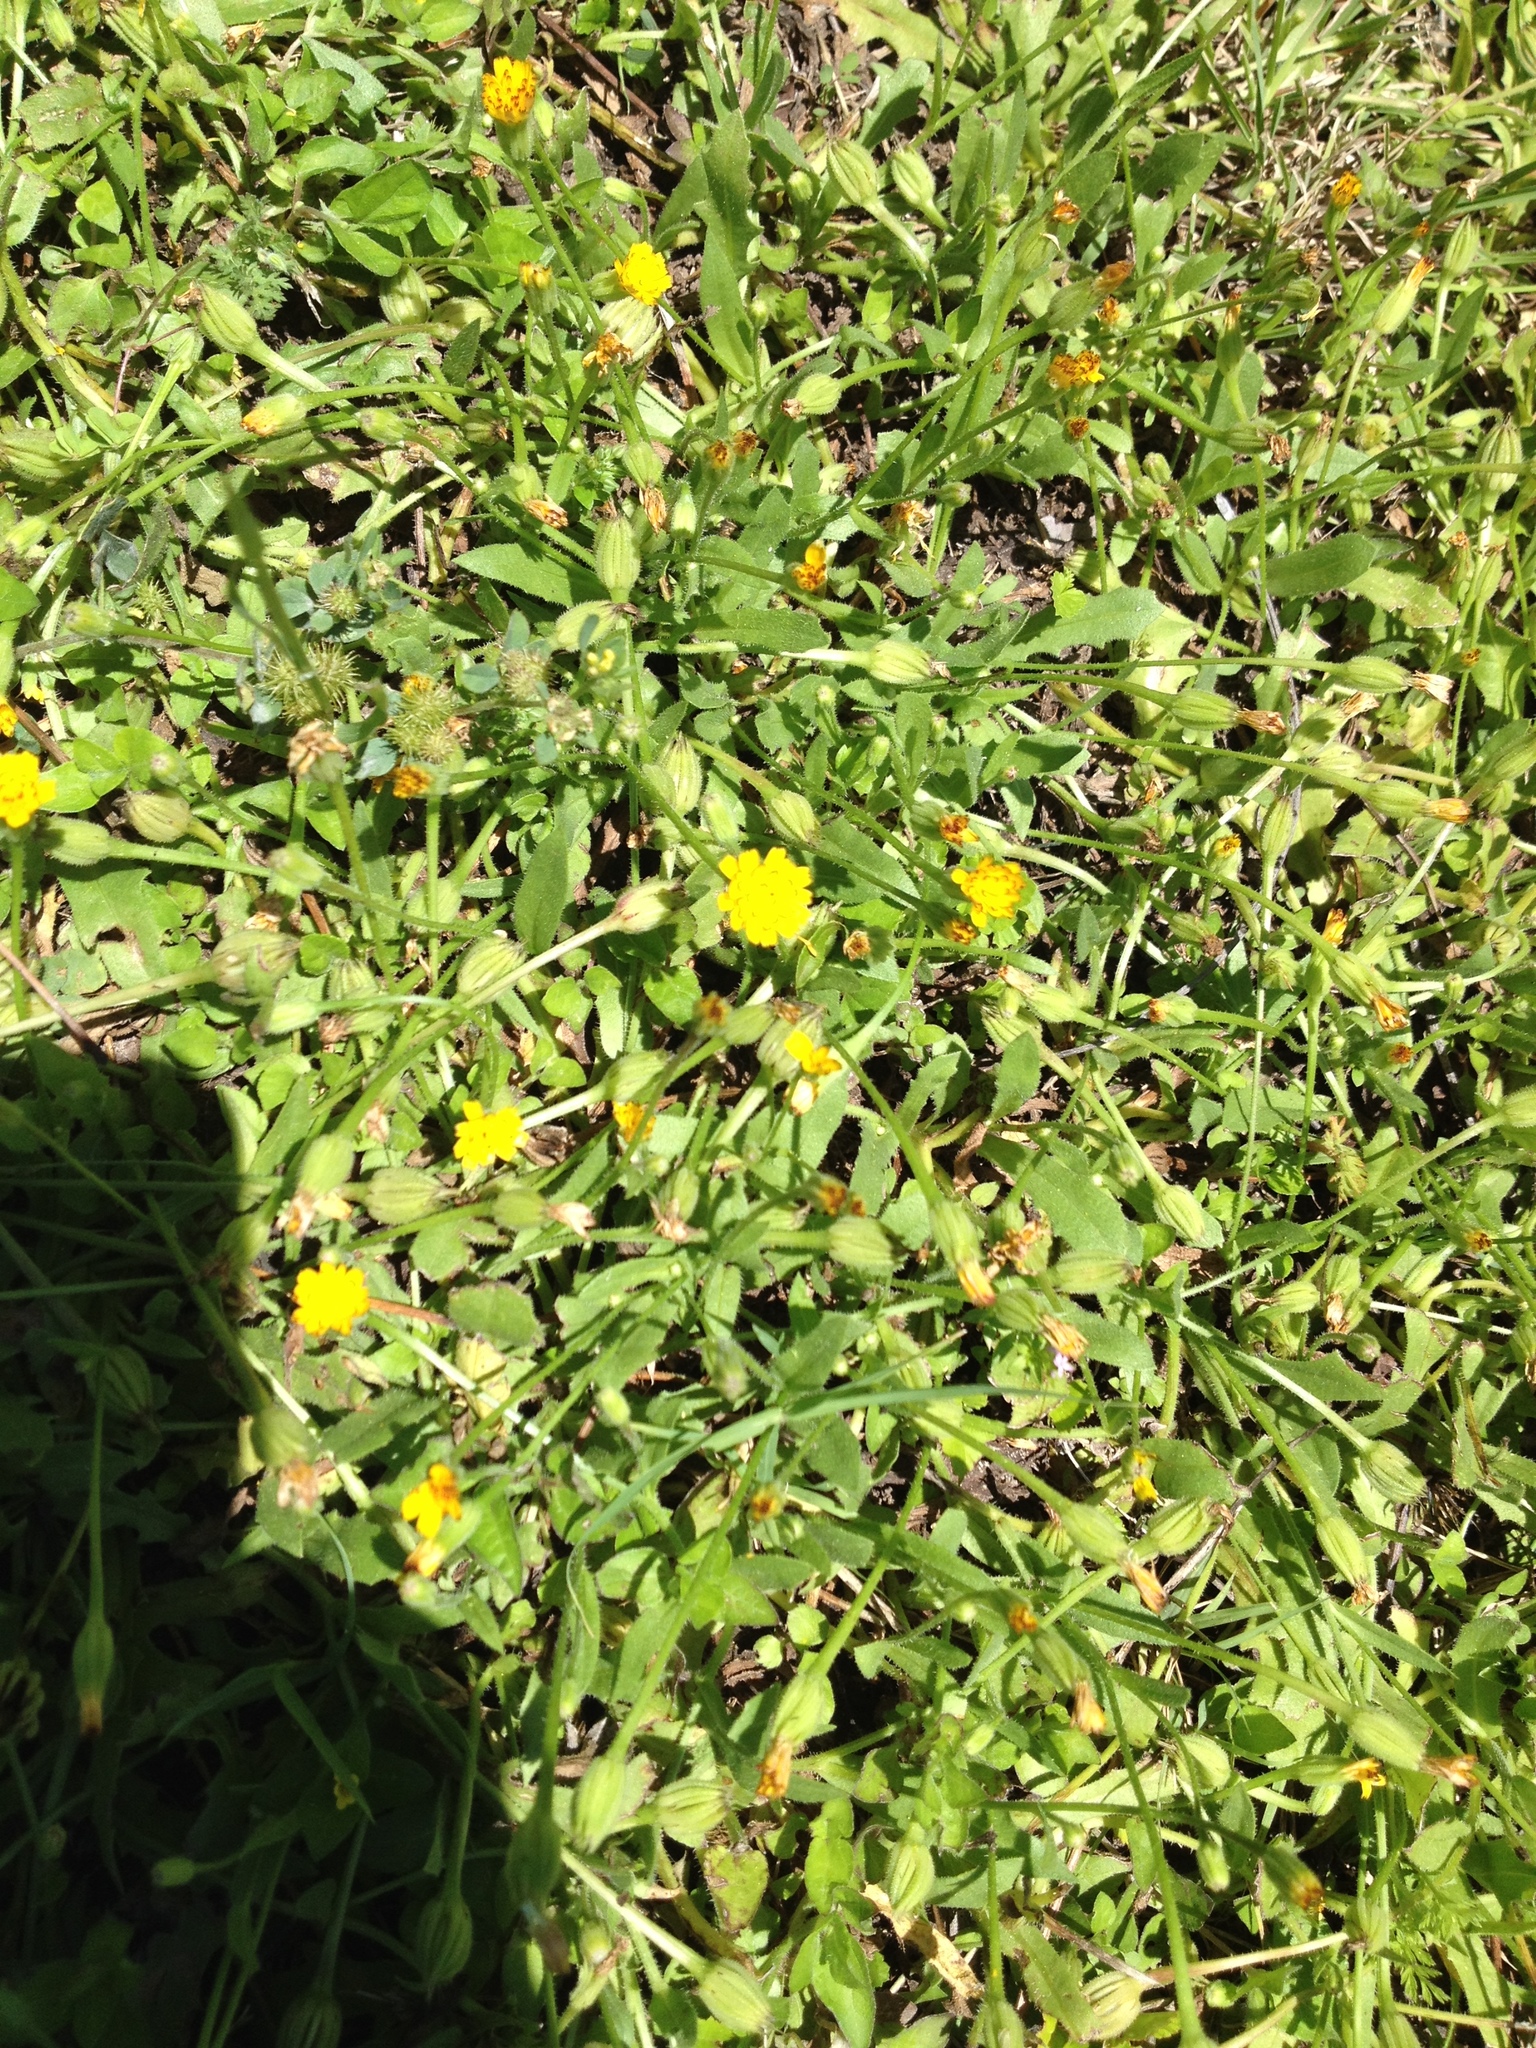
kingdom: Plantae
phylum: Tracheophyta
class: Magnoliopsida
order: Asterales
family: Asteraceae
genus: Hedypnois
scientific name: Hedypnois rhagadioloides
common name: Cretan weed
